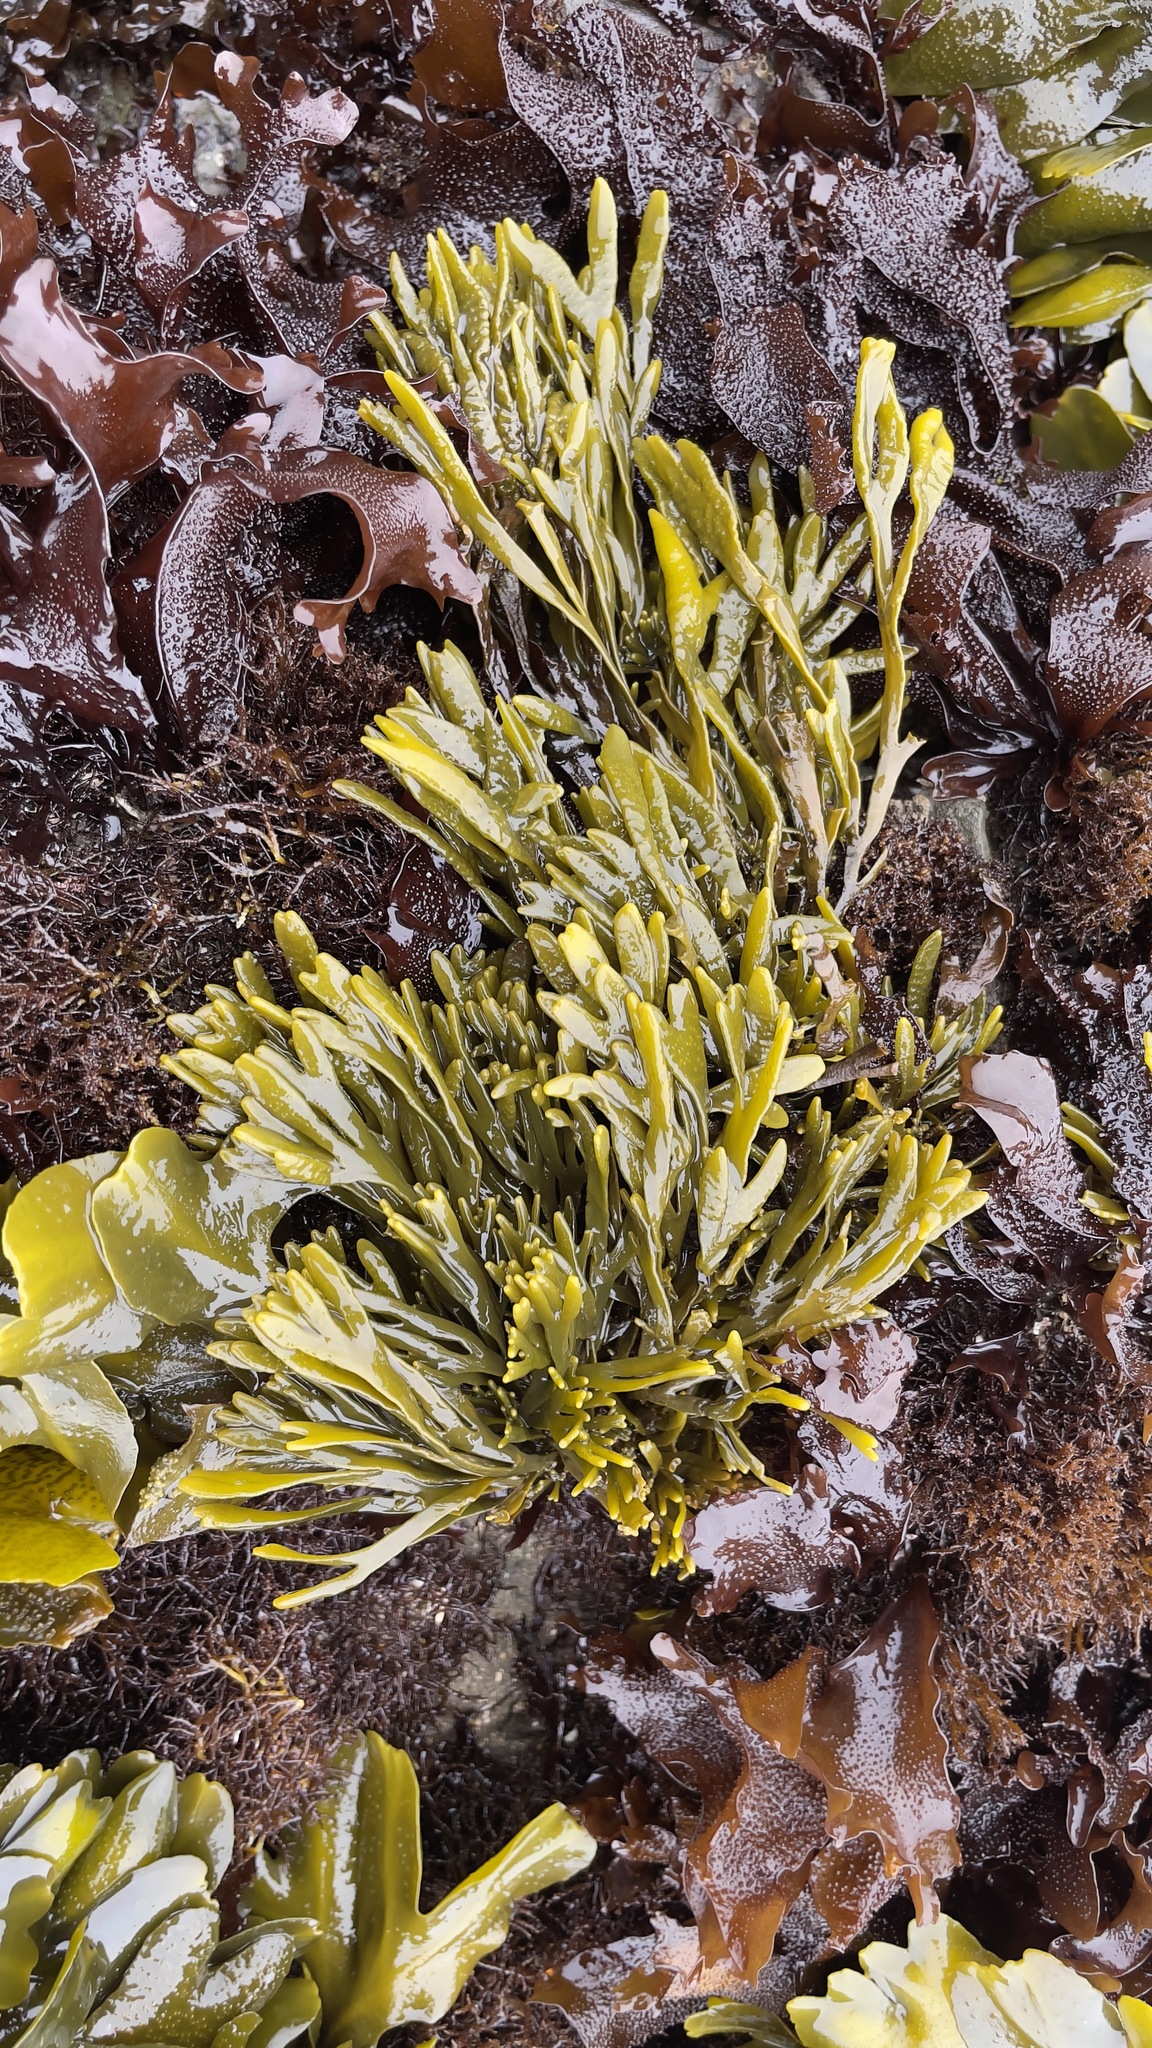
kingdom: Chromista
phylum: Ochrophyta
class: Phaeophyceae
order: Fucales
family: Fucaceae
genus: Pelvetiopsis
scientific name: Pelvetiopsis limitata
